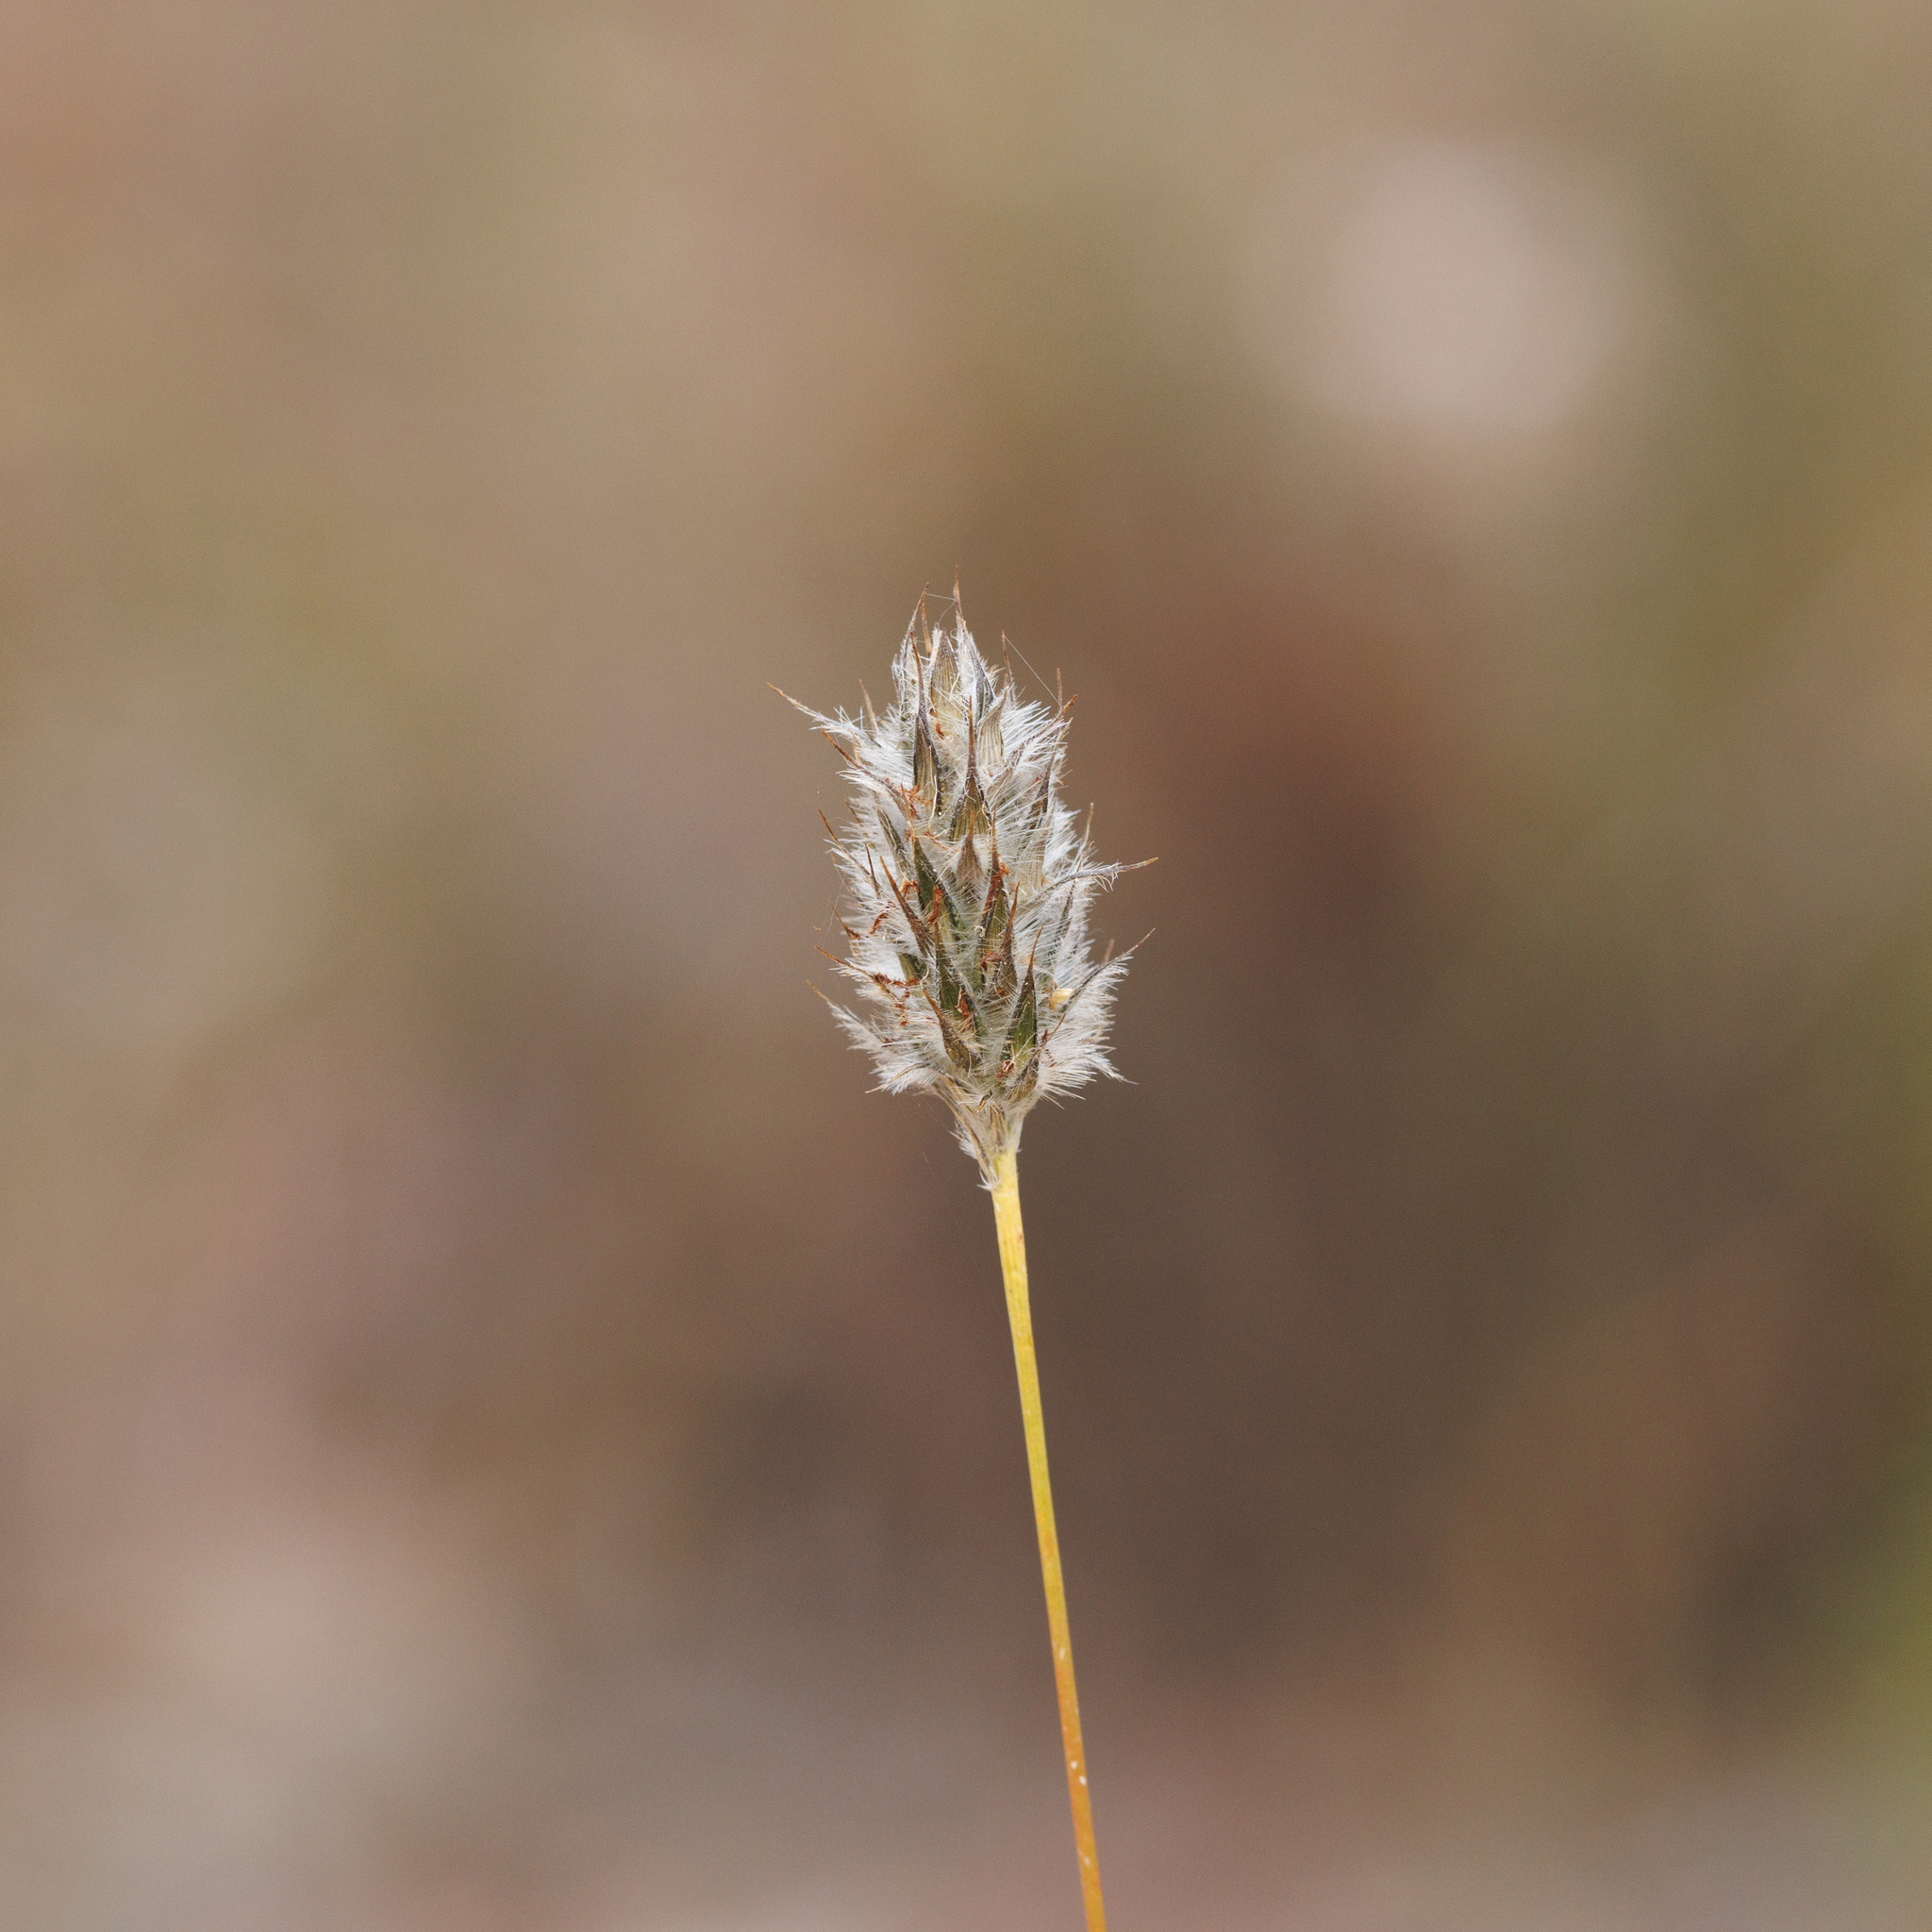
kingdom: Plantae
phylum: Tracheophyta
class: Liliopsida
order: Poales
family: Poaceae
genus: Neurachne
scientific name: Neurachne alopecuroidea
